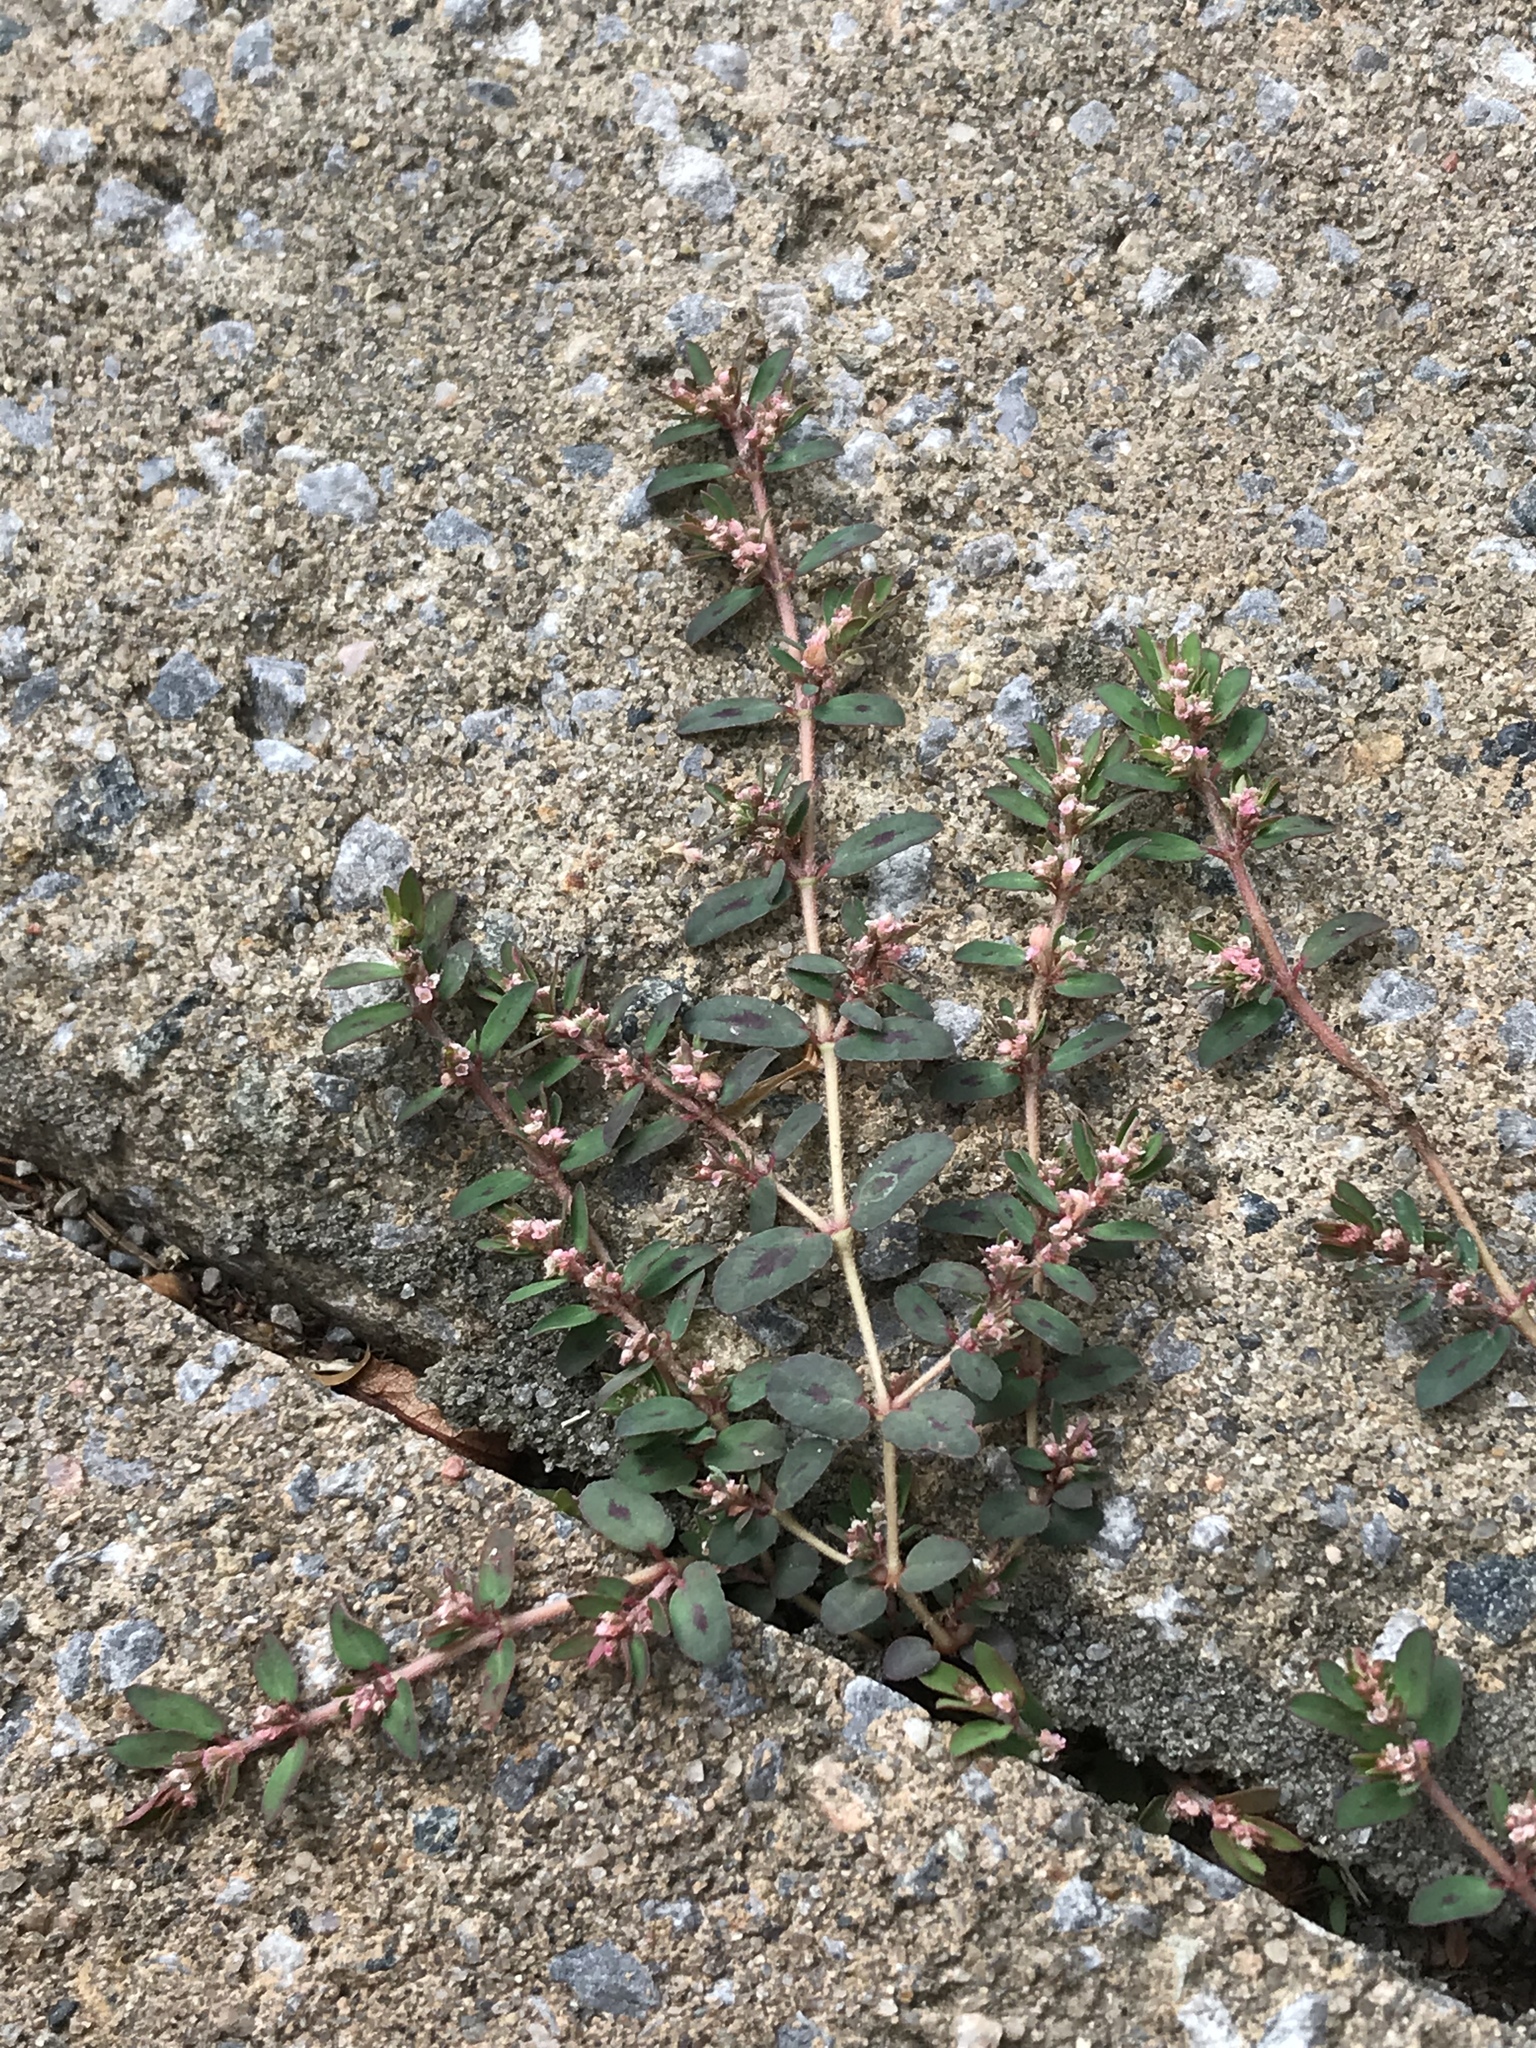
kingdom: Plantae
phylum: Tracheophyta
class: Magnoliopsida
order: Malpighiales
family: Euphorbiaceae
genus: Euphorbia
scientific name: Euphorbia maculata
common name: Spotted spurge
